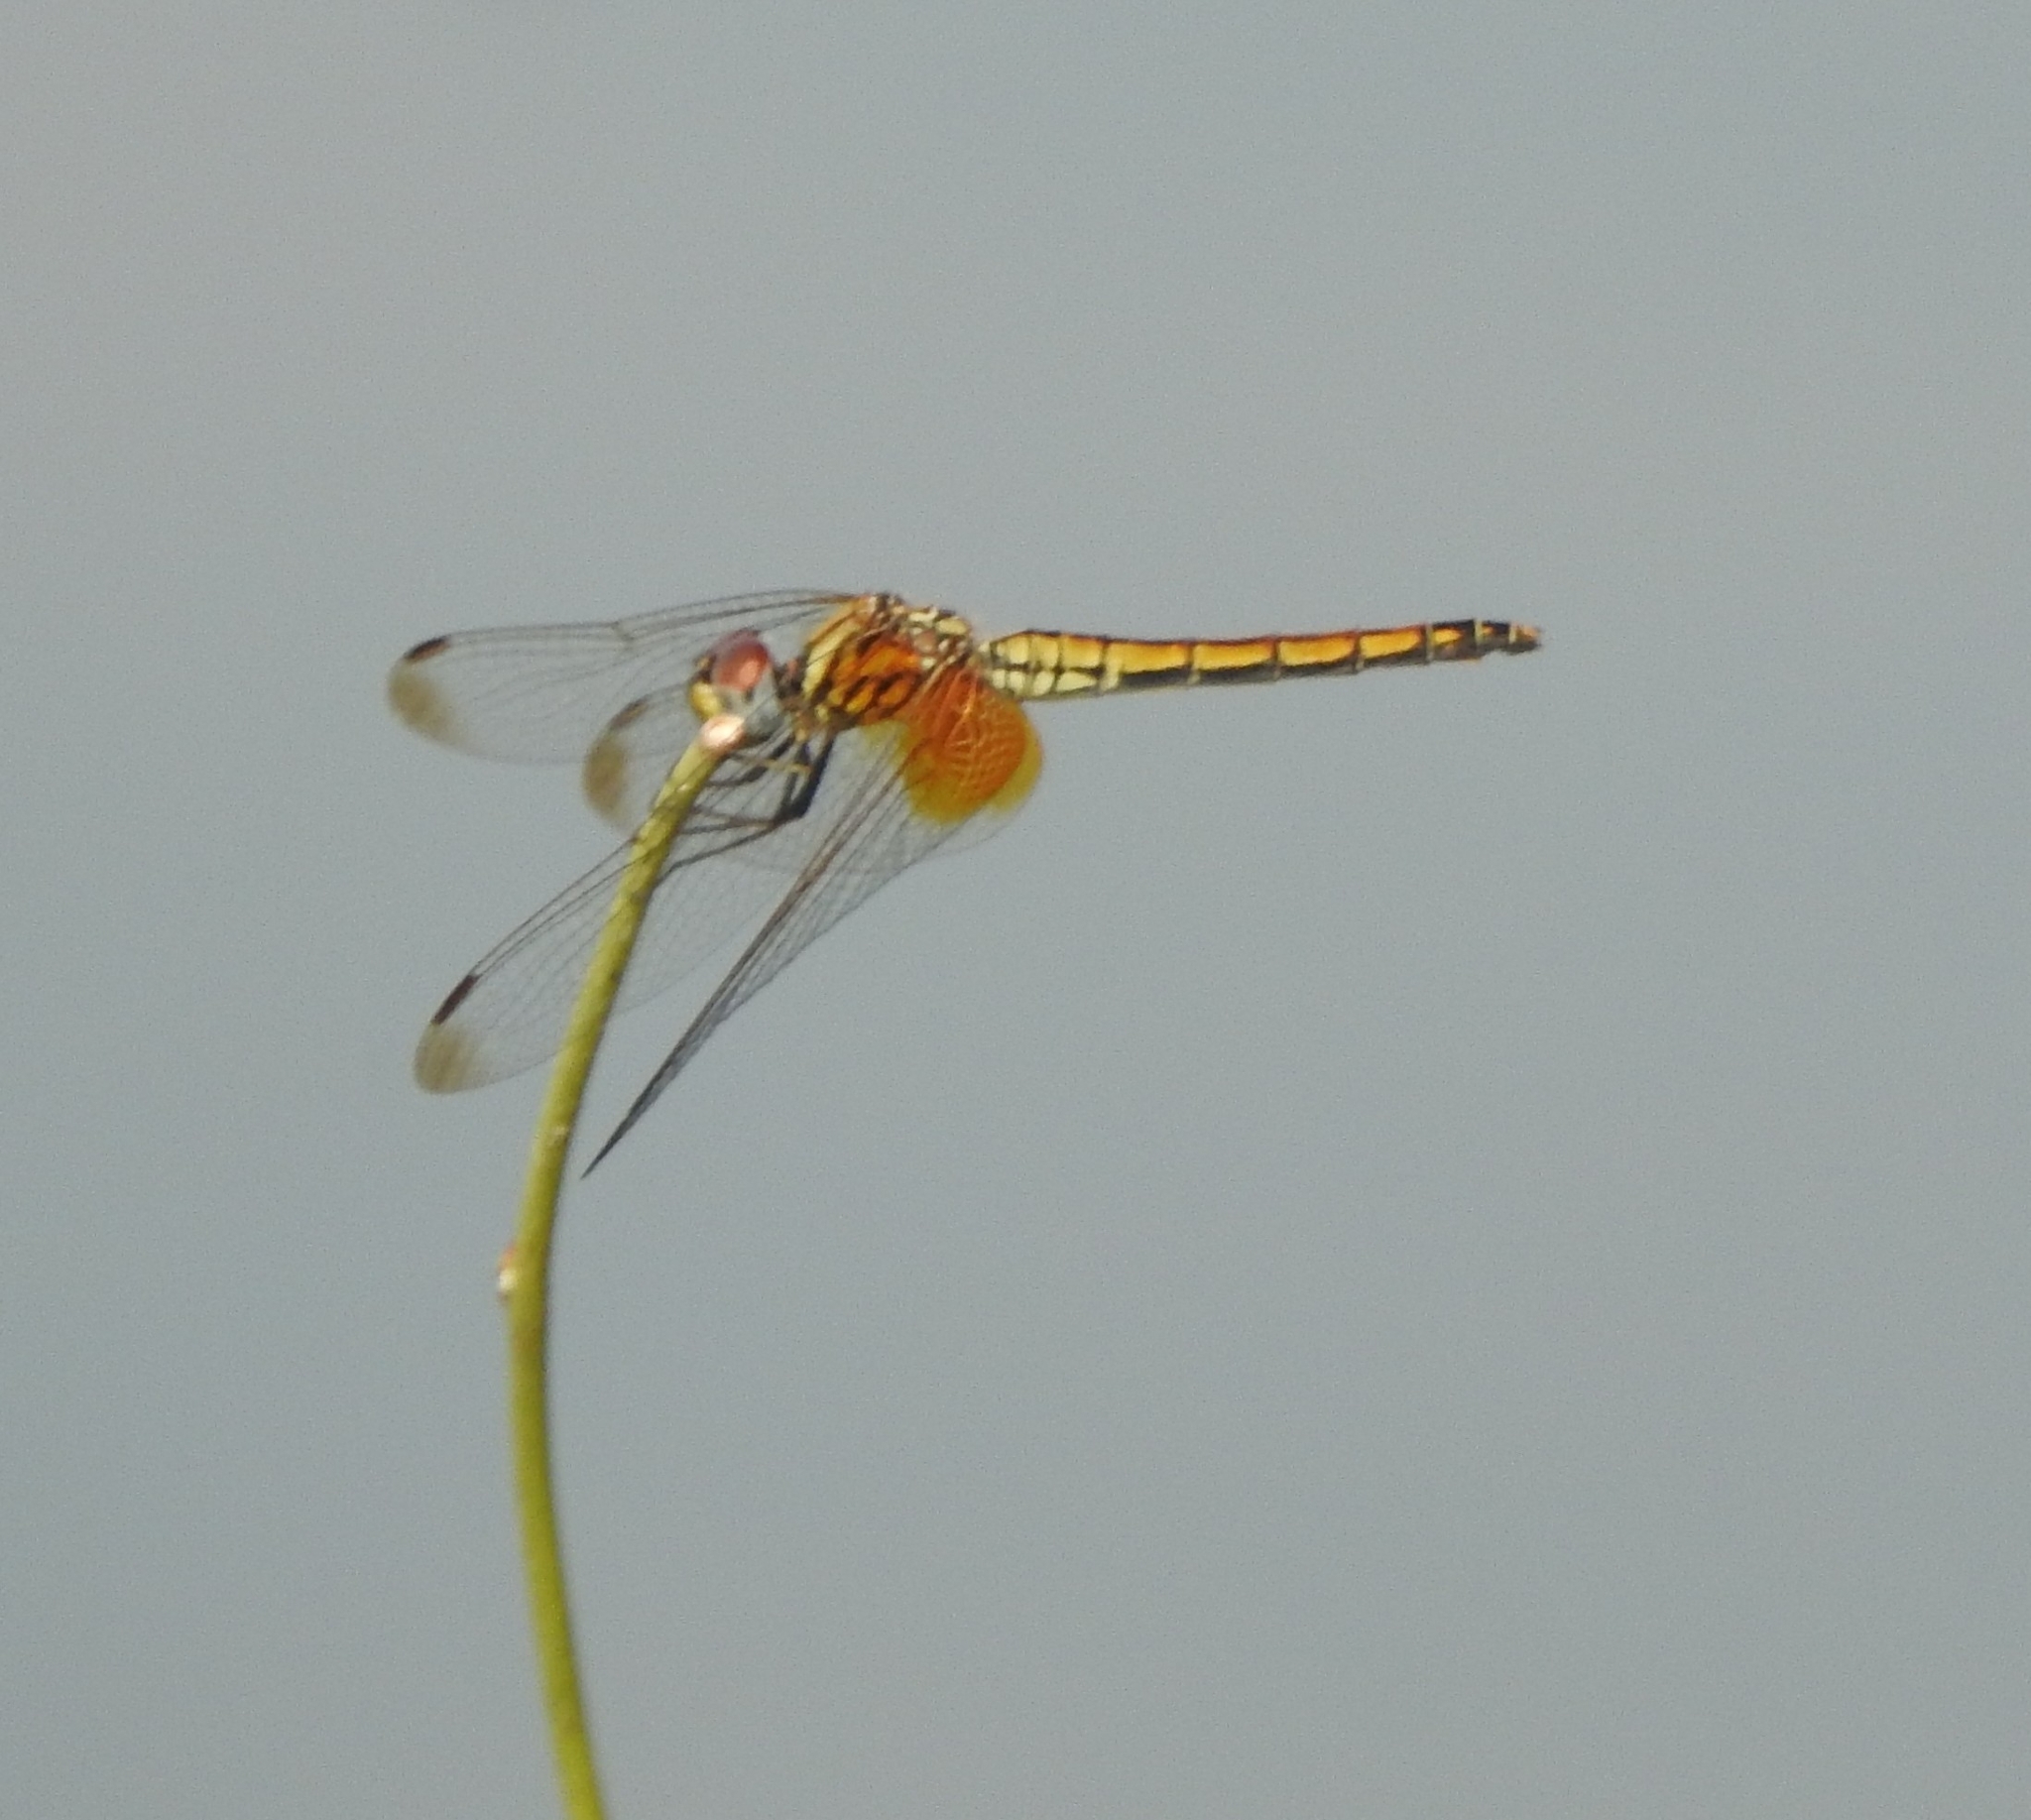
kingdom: Animalia
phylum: Arthropoda
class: Insecta
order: Odonata
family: Libellulidae
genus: Trithemis
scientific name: Trithemis aurora
